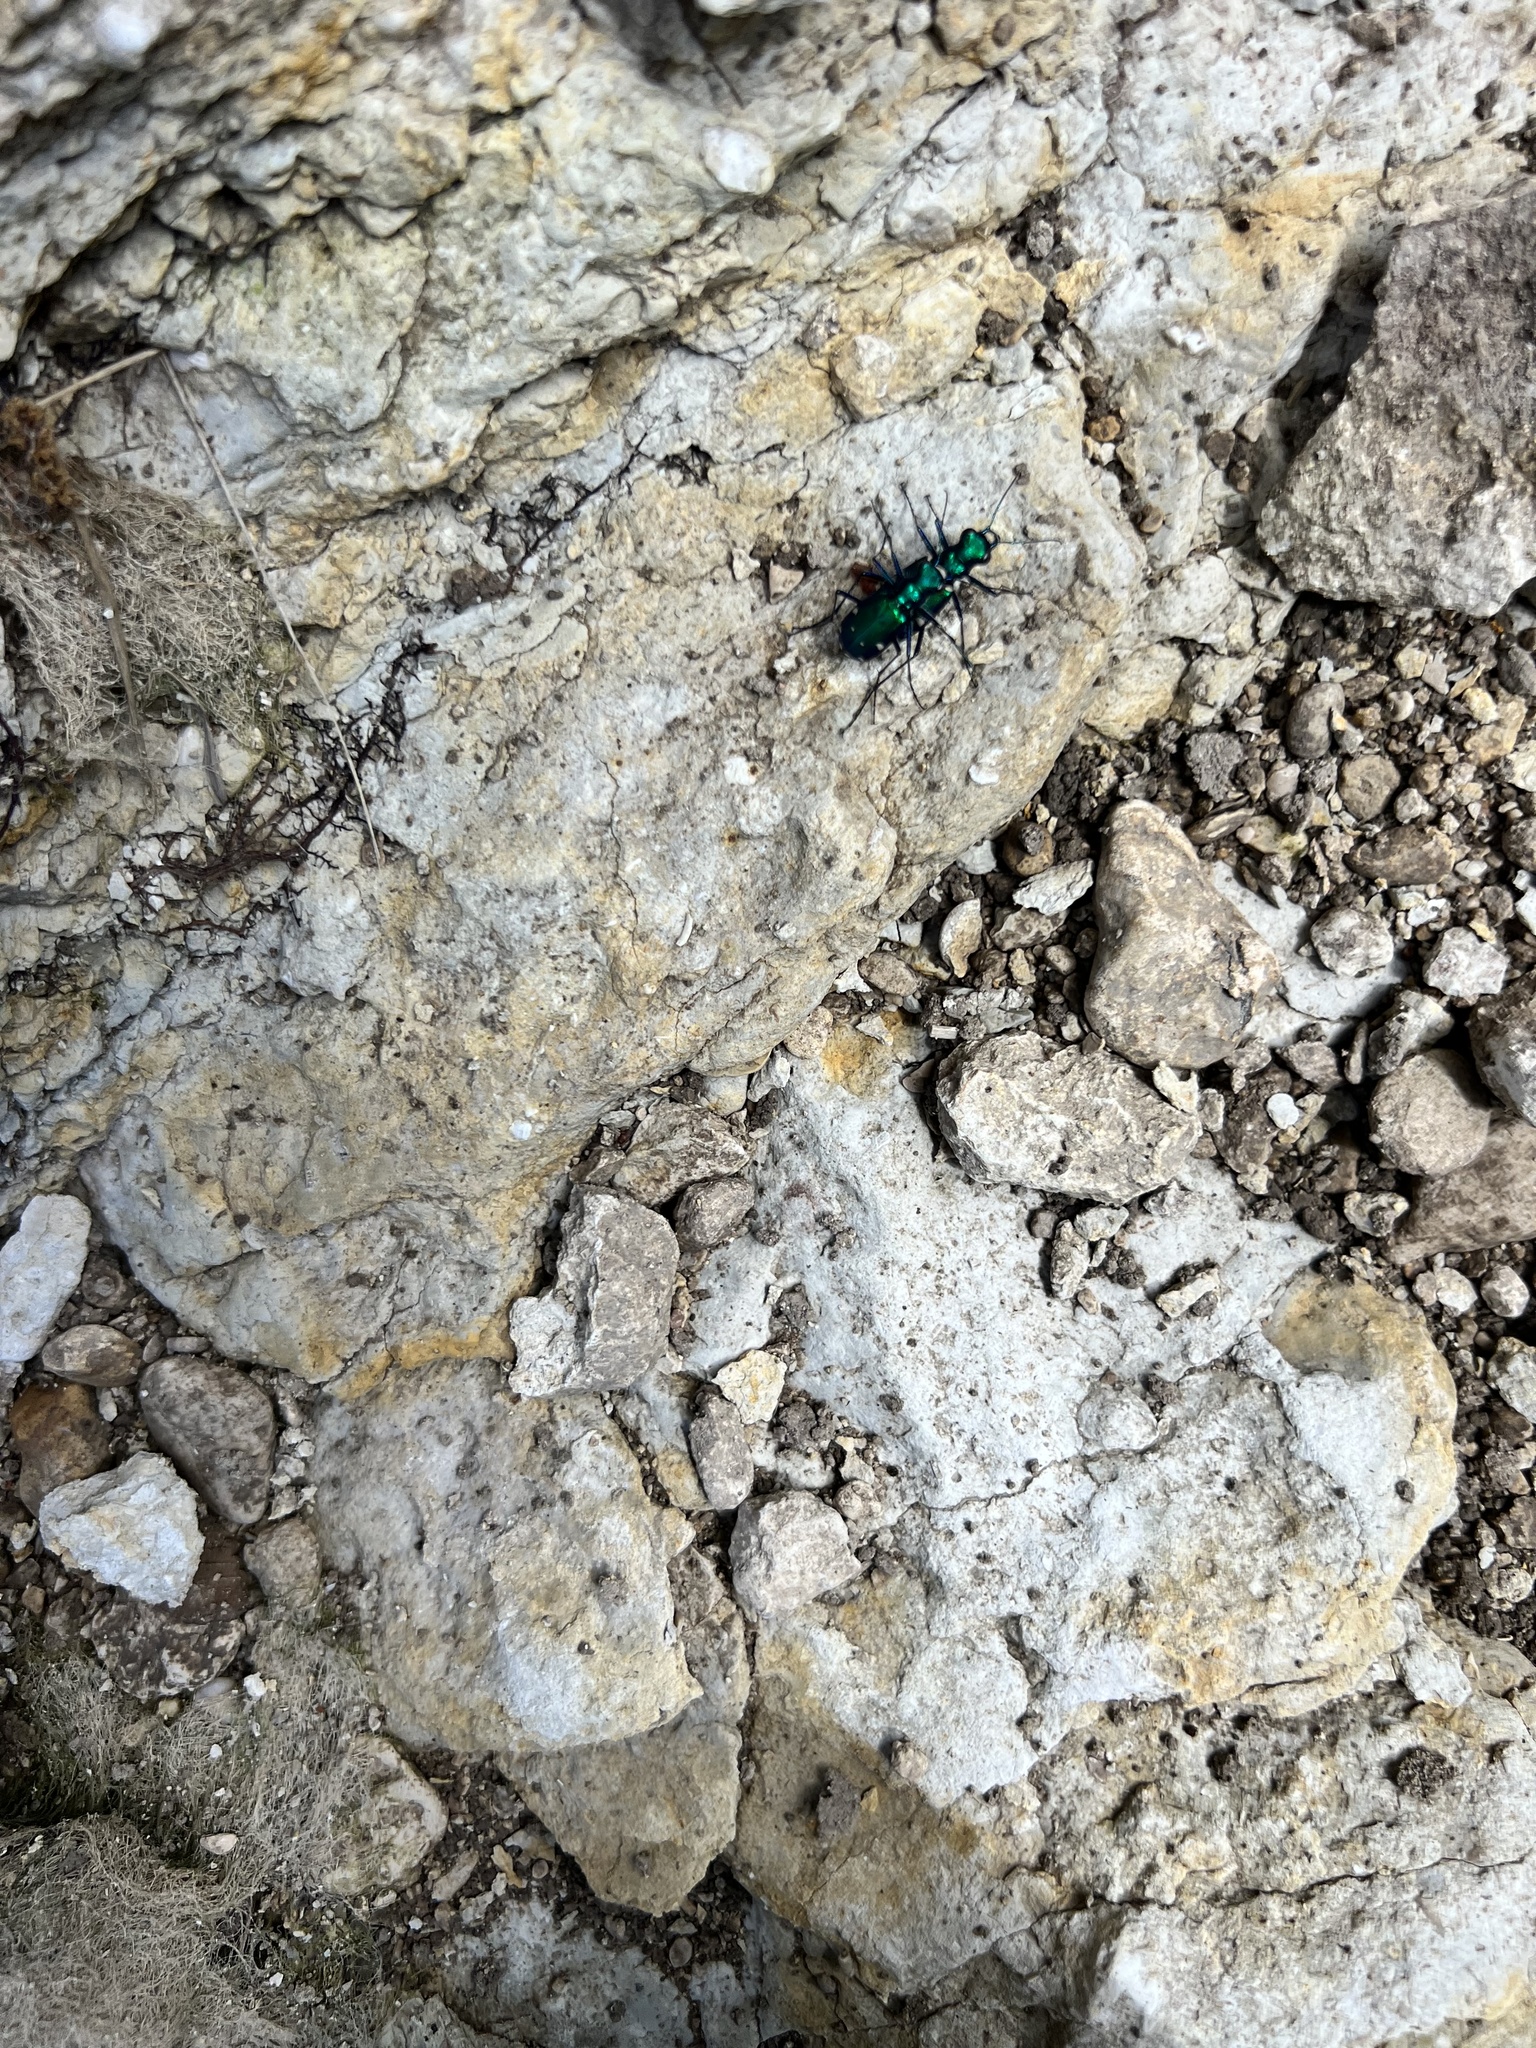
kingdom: Animalia
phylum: Arthropoda
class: Insecta
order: Coleoptera
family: Carabidae
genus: Cicindela
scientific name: Cicindela sexguttata
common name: Six-spotted tiger beetle
